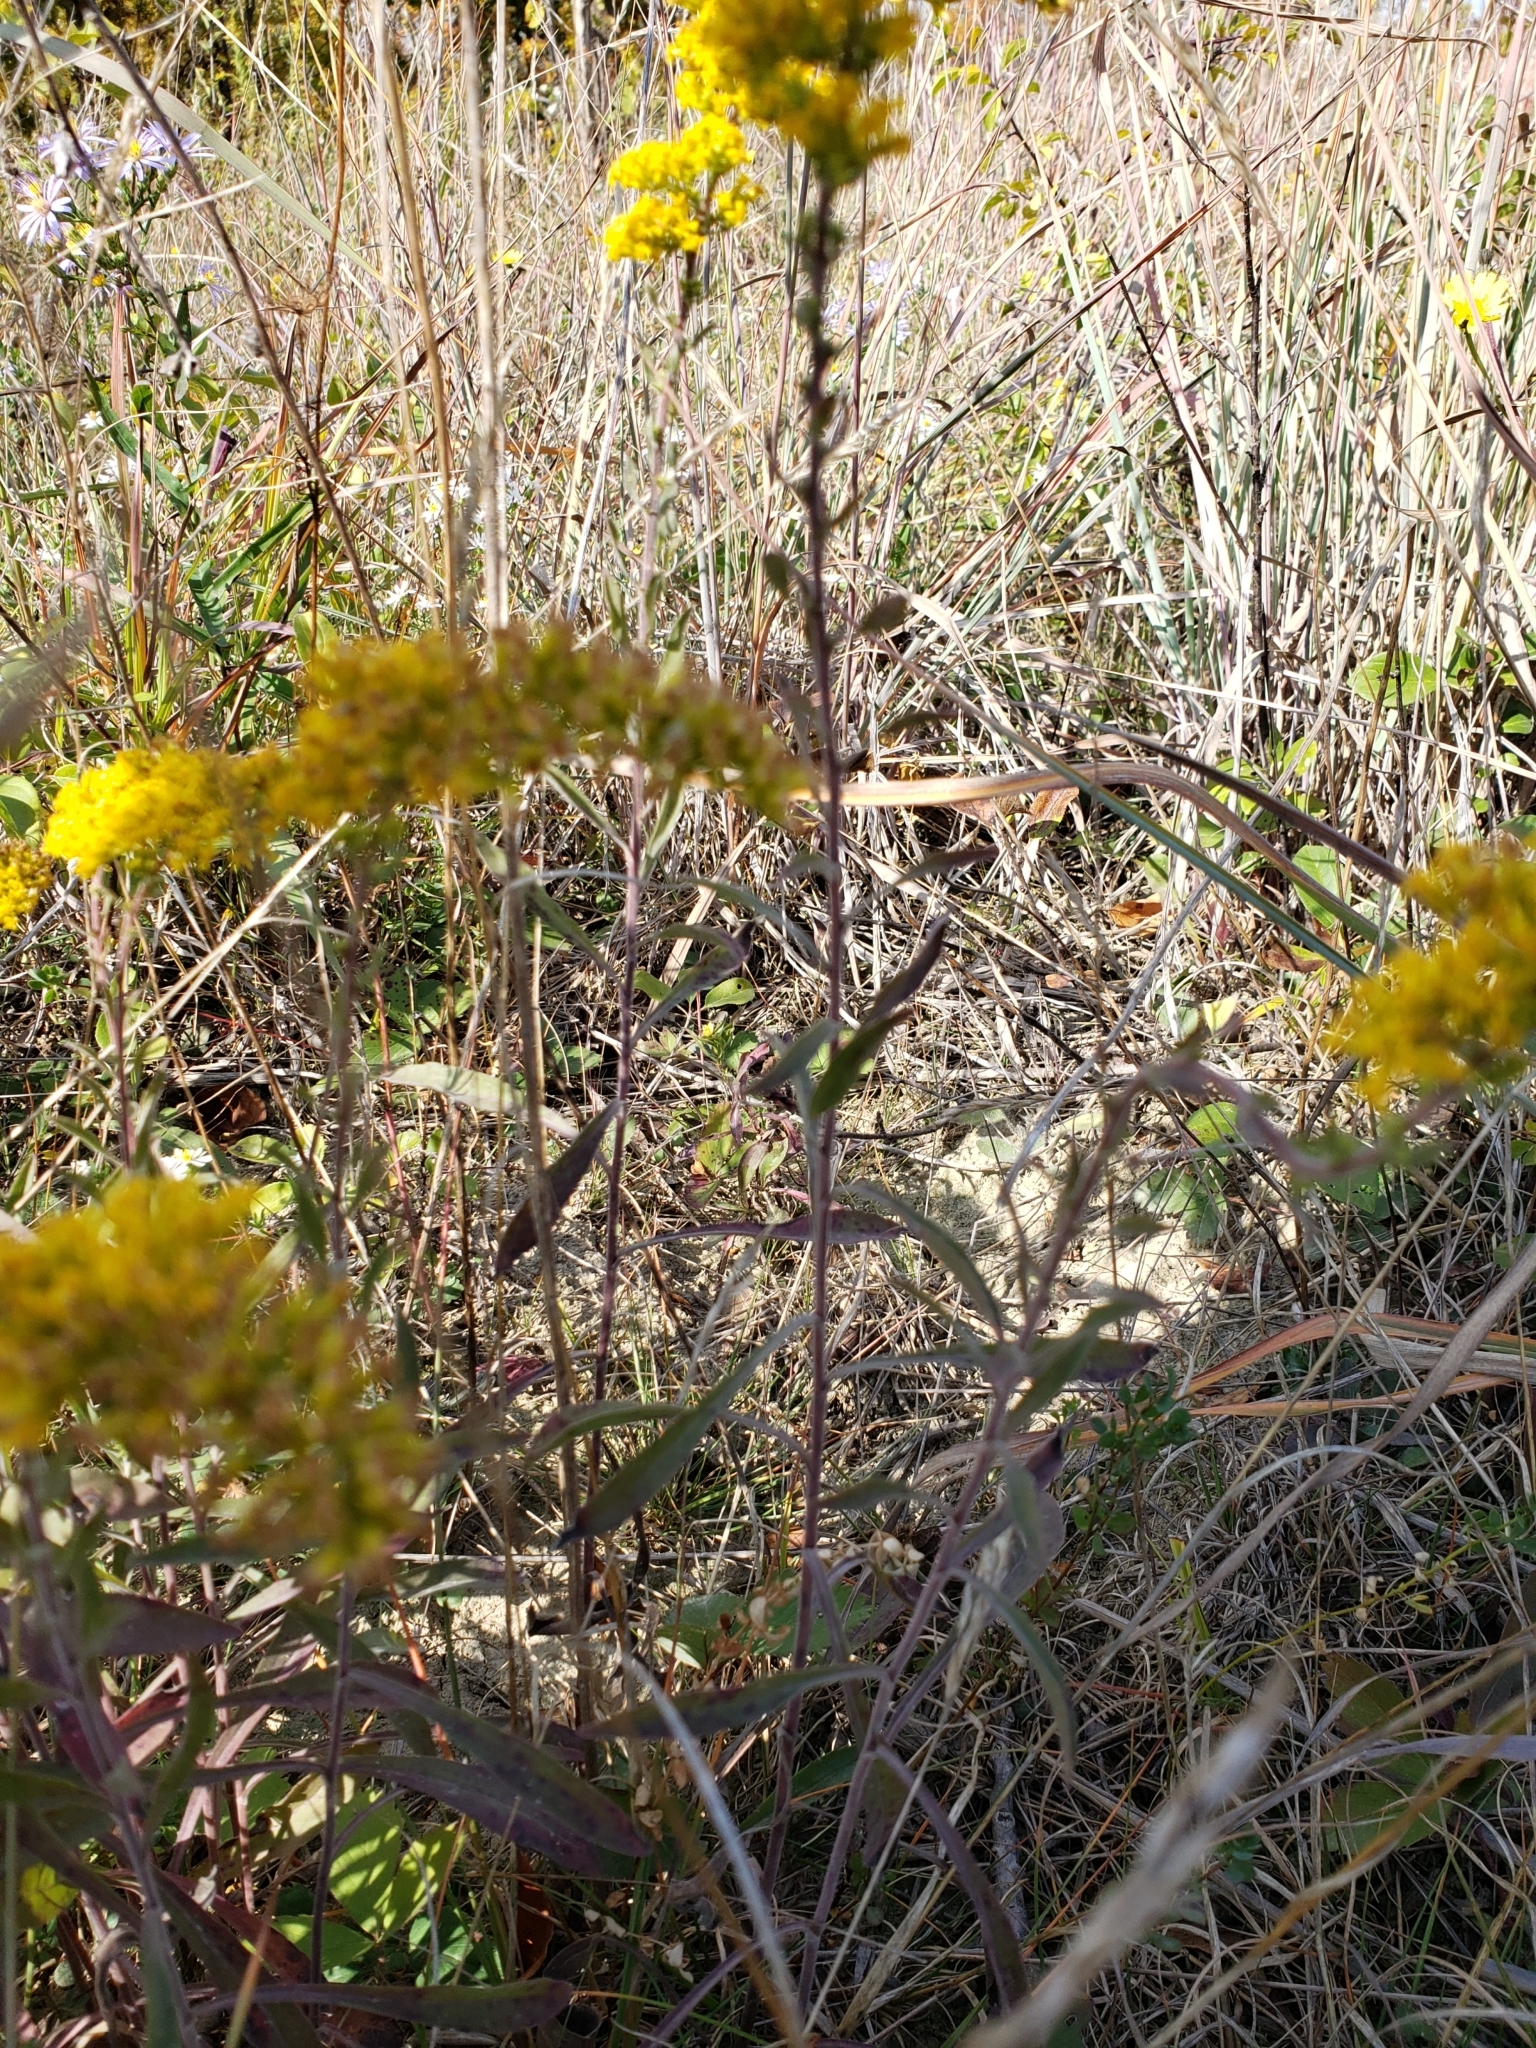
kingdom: Plantae
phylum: Tracheophyta
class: Magnoliopsida
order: Asterales
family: Asteraceae
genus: Solidago
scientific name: Solidago nemoralis
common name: Grey goldenrod
